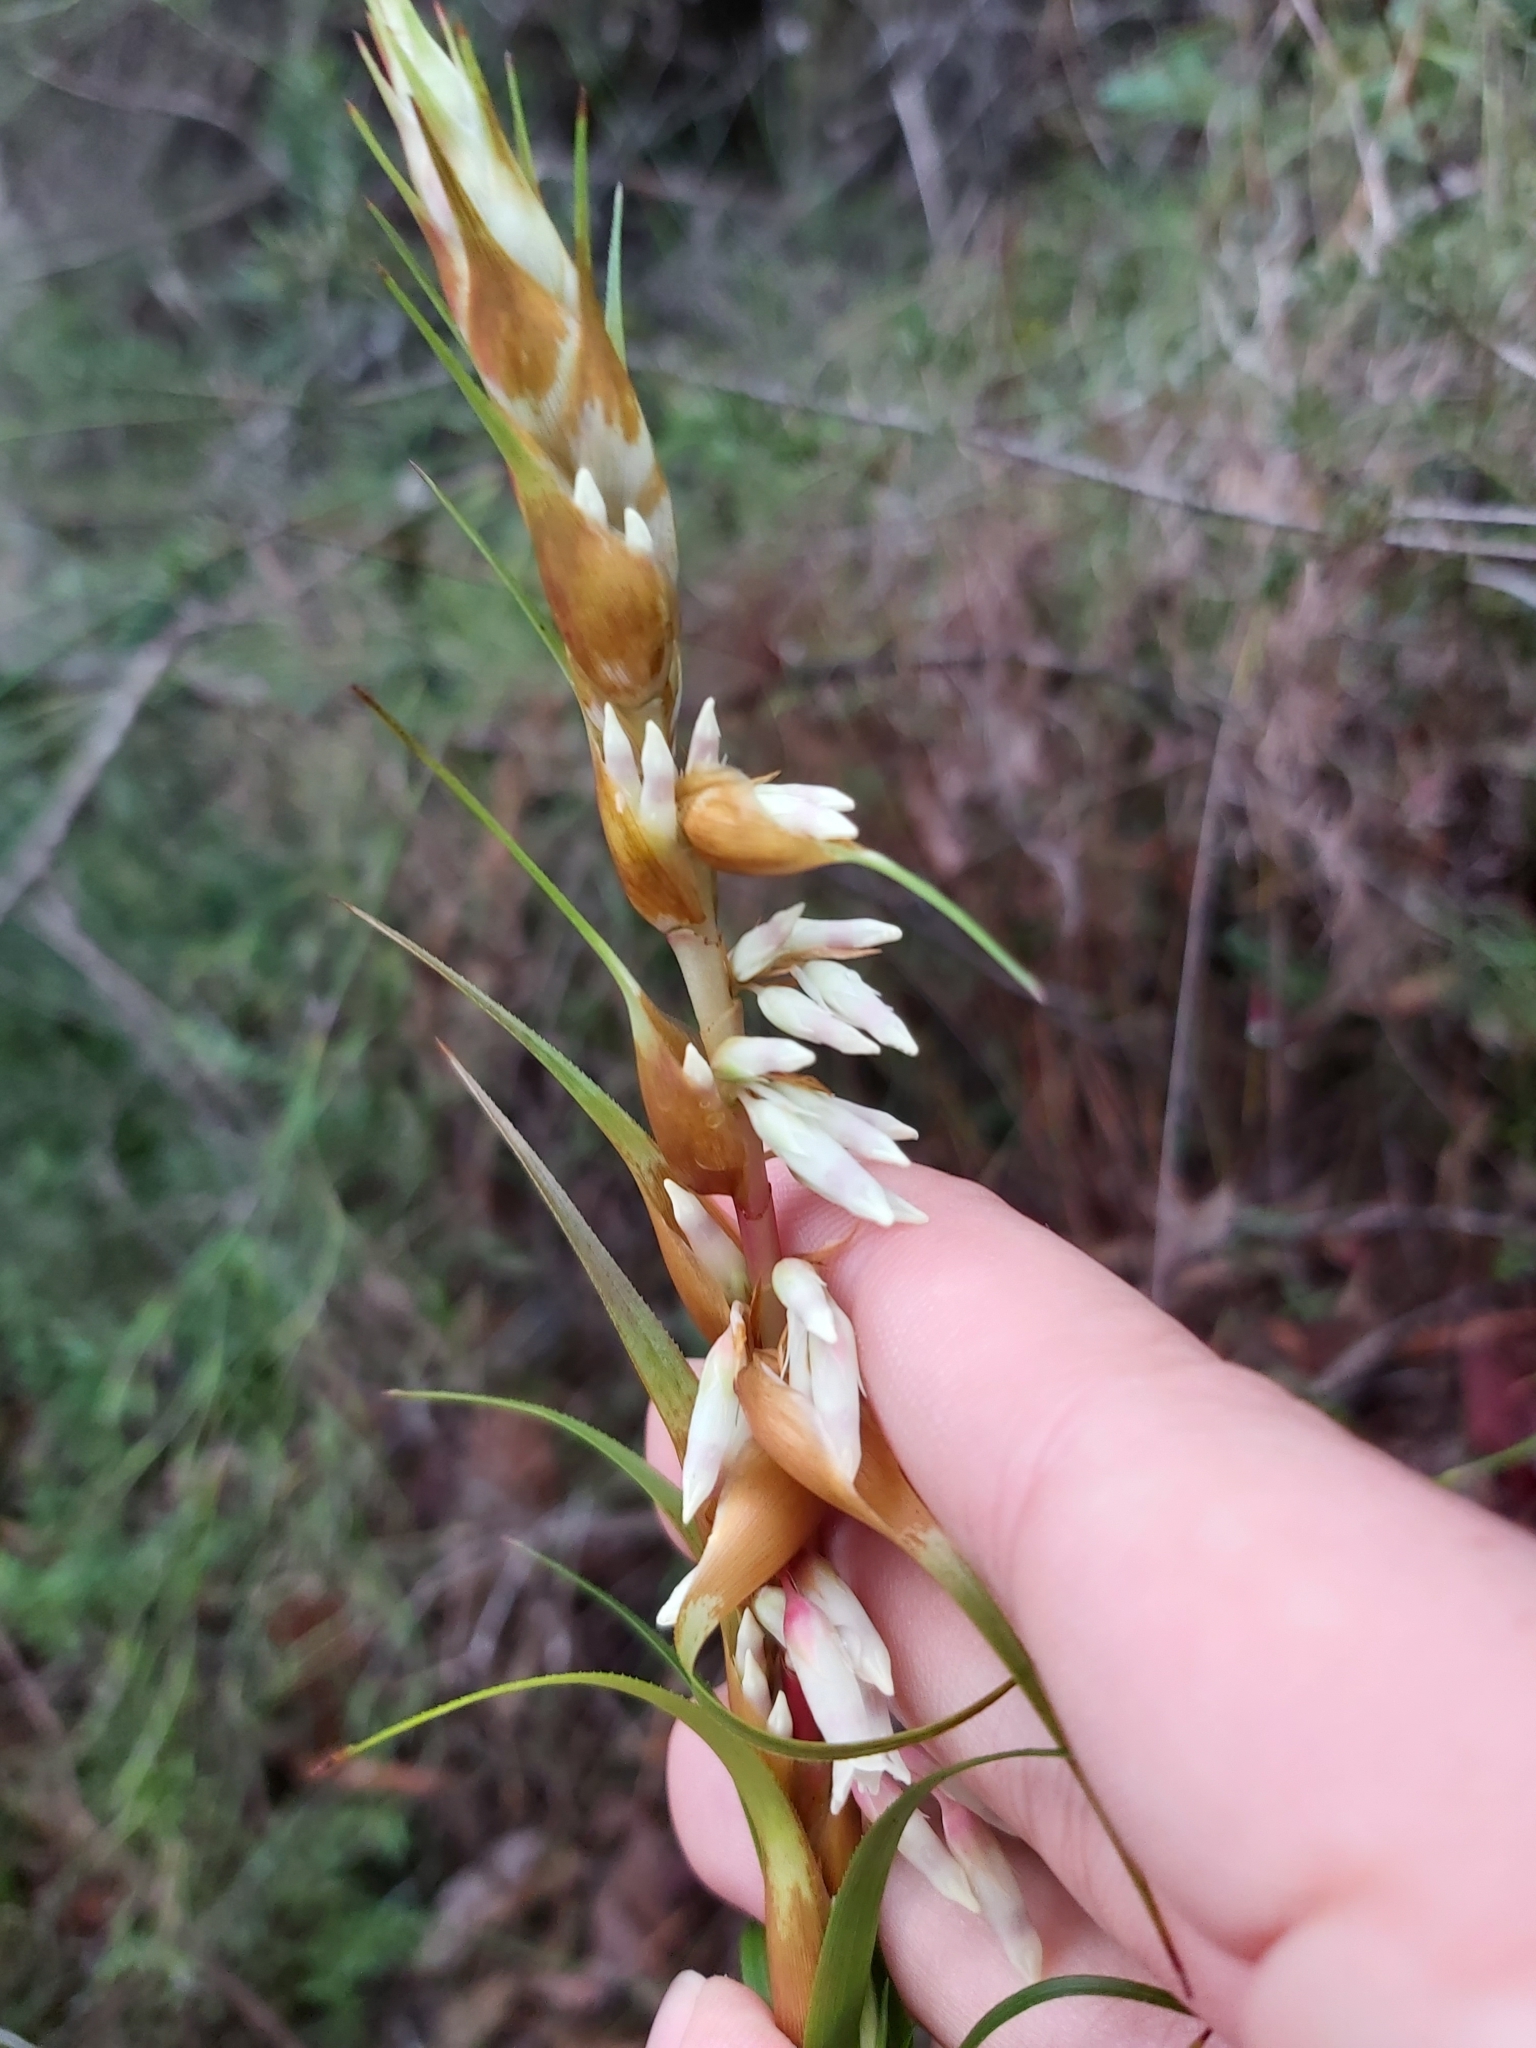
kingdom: Plantae
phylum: Tracheophyta
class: Magnoliopsida
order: Ericales
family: Ericaceae
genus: Dracophyllum
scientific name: Dracophyllum secundum
